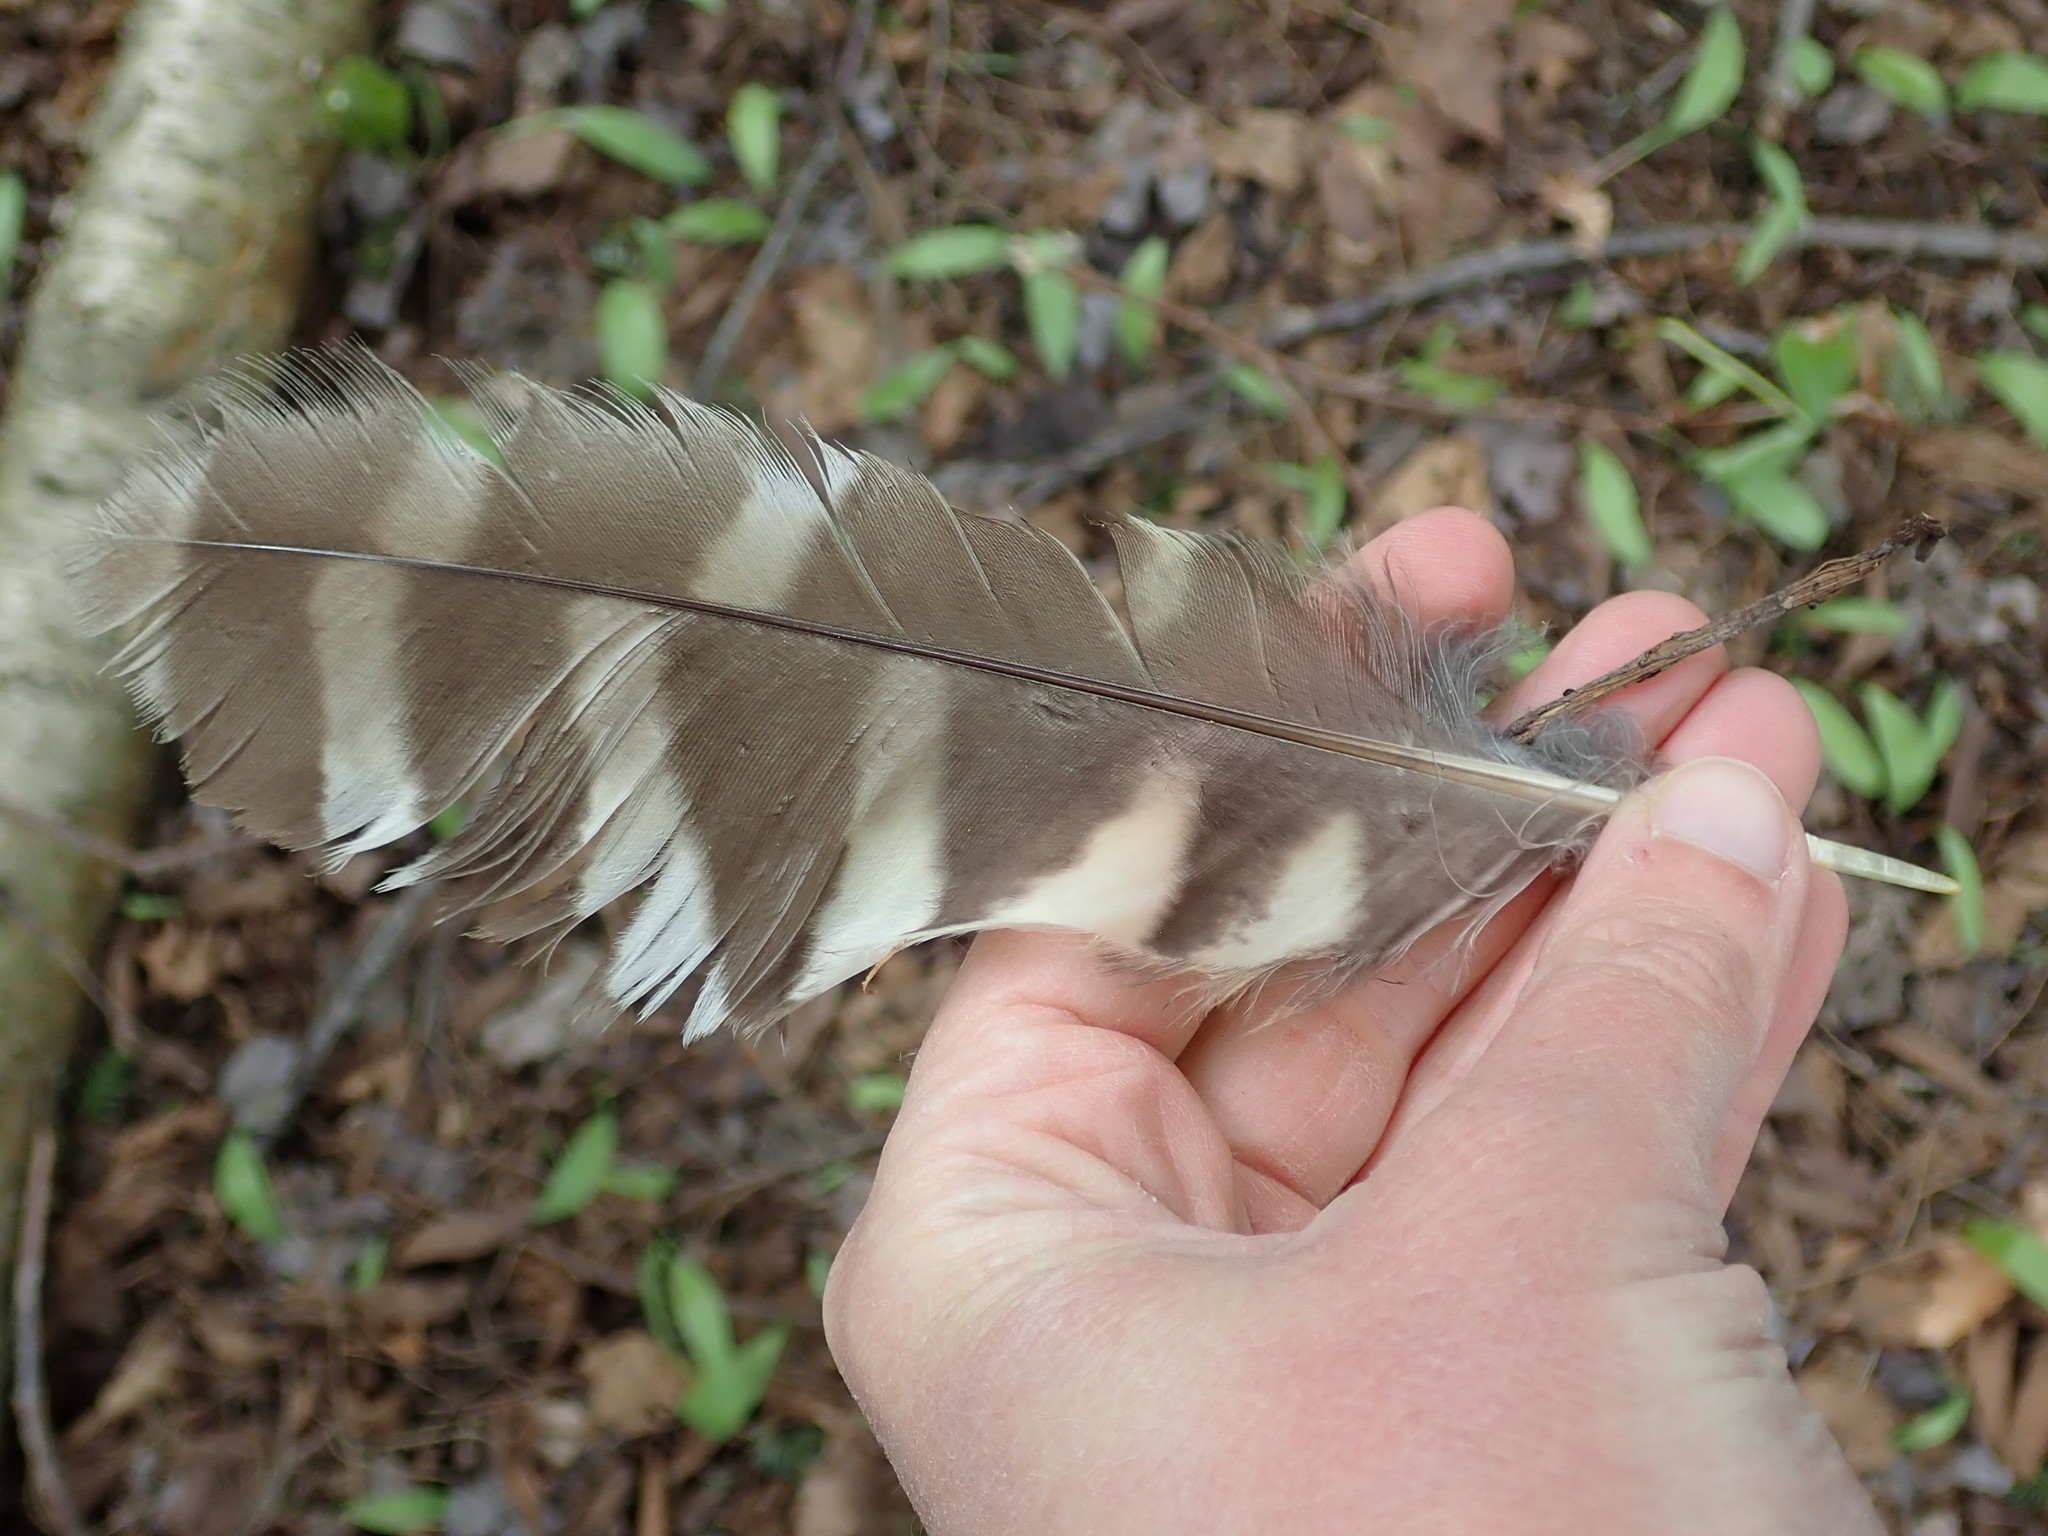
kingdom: Animalia
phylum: Chordata
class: Aves
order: Strigiformes
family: Strigidae
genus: Strix
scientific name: Strix varia
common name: Barred owl
